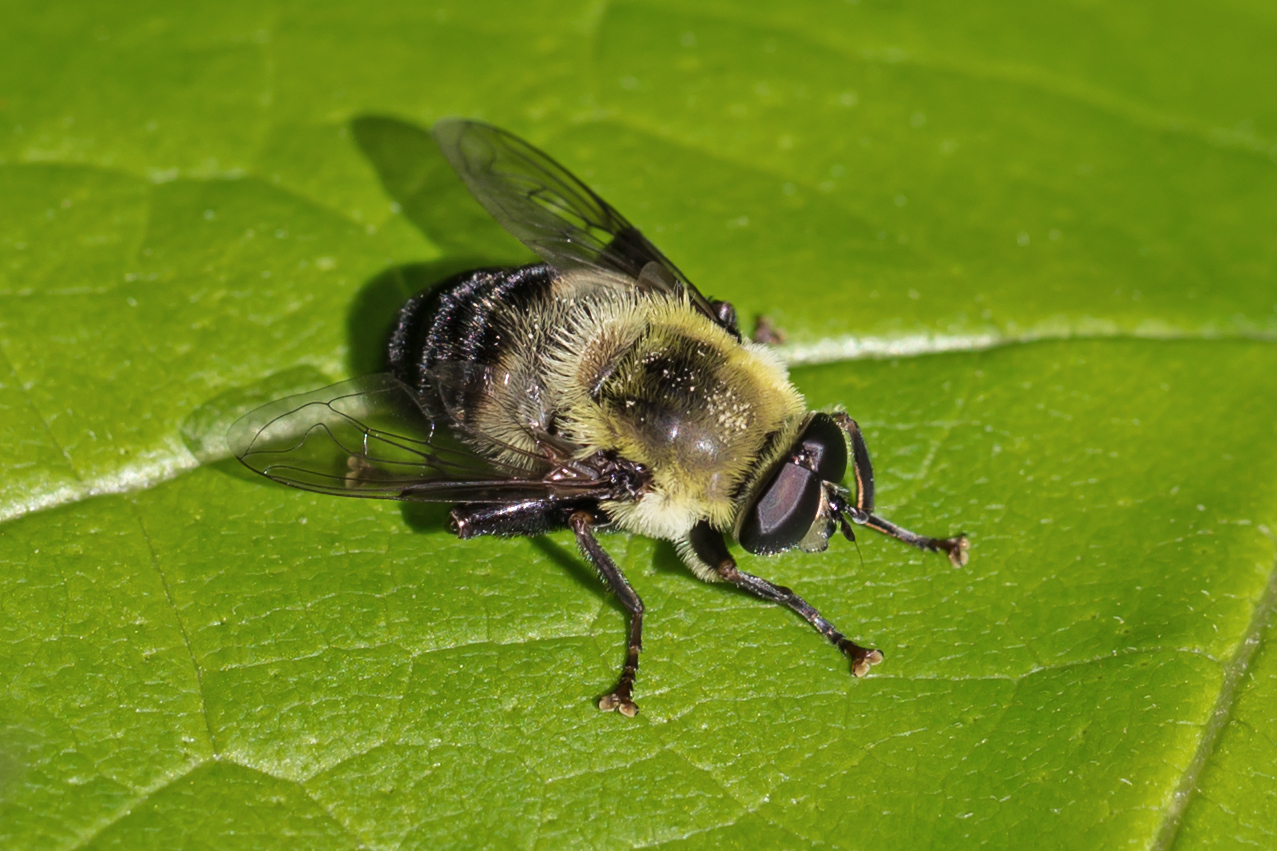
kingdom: Animalia
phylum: Arthropoda
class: Insecta
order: Diptera
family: Syrphidae
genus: Imatisma
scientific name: Imatisma posticata
